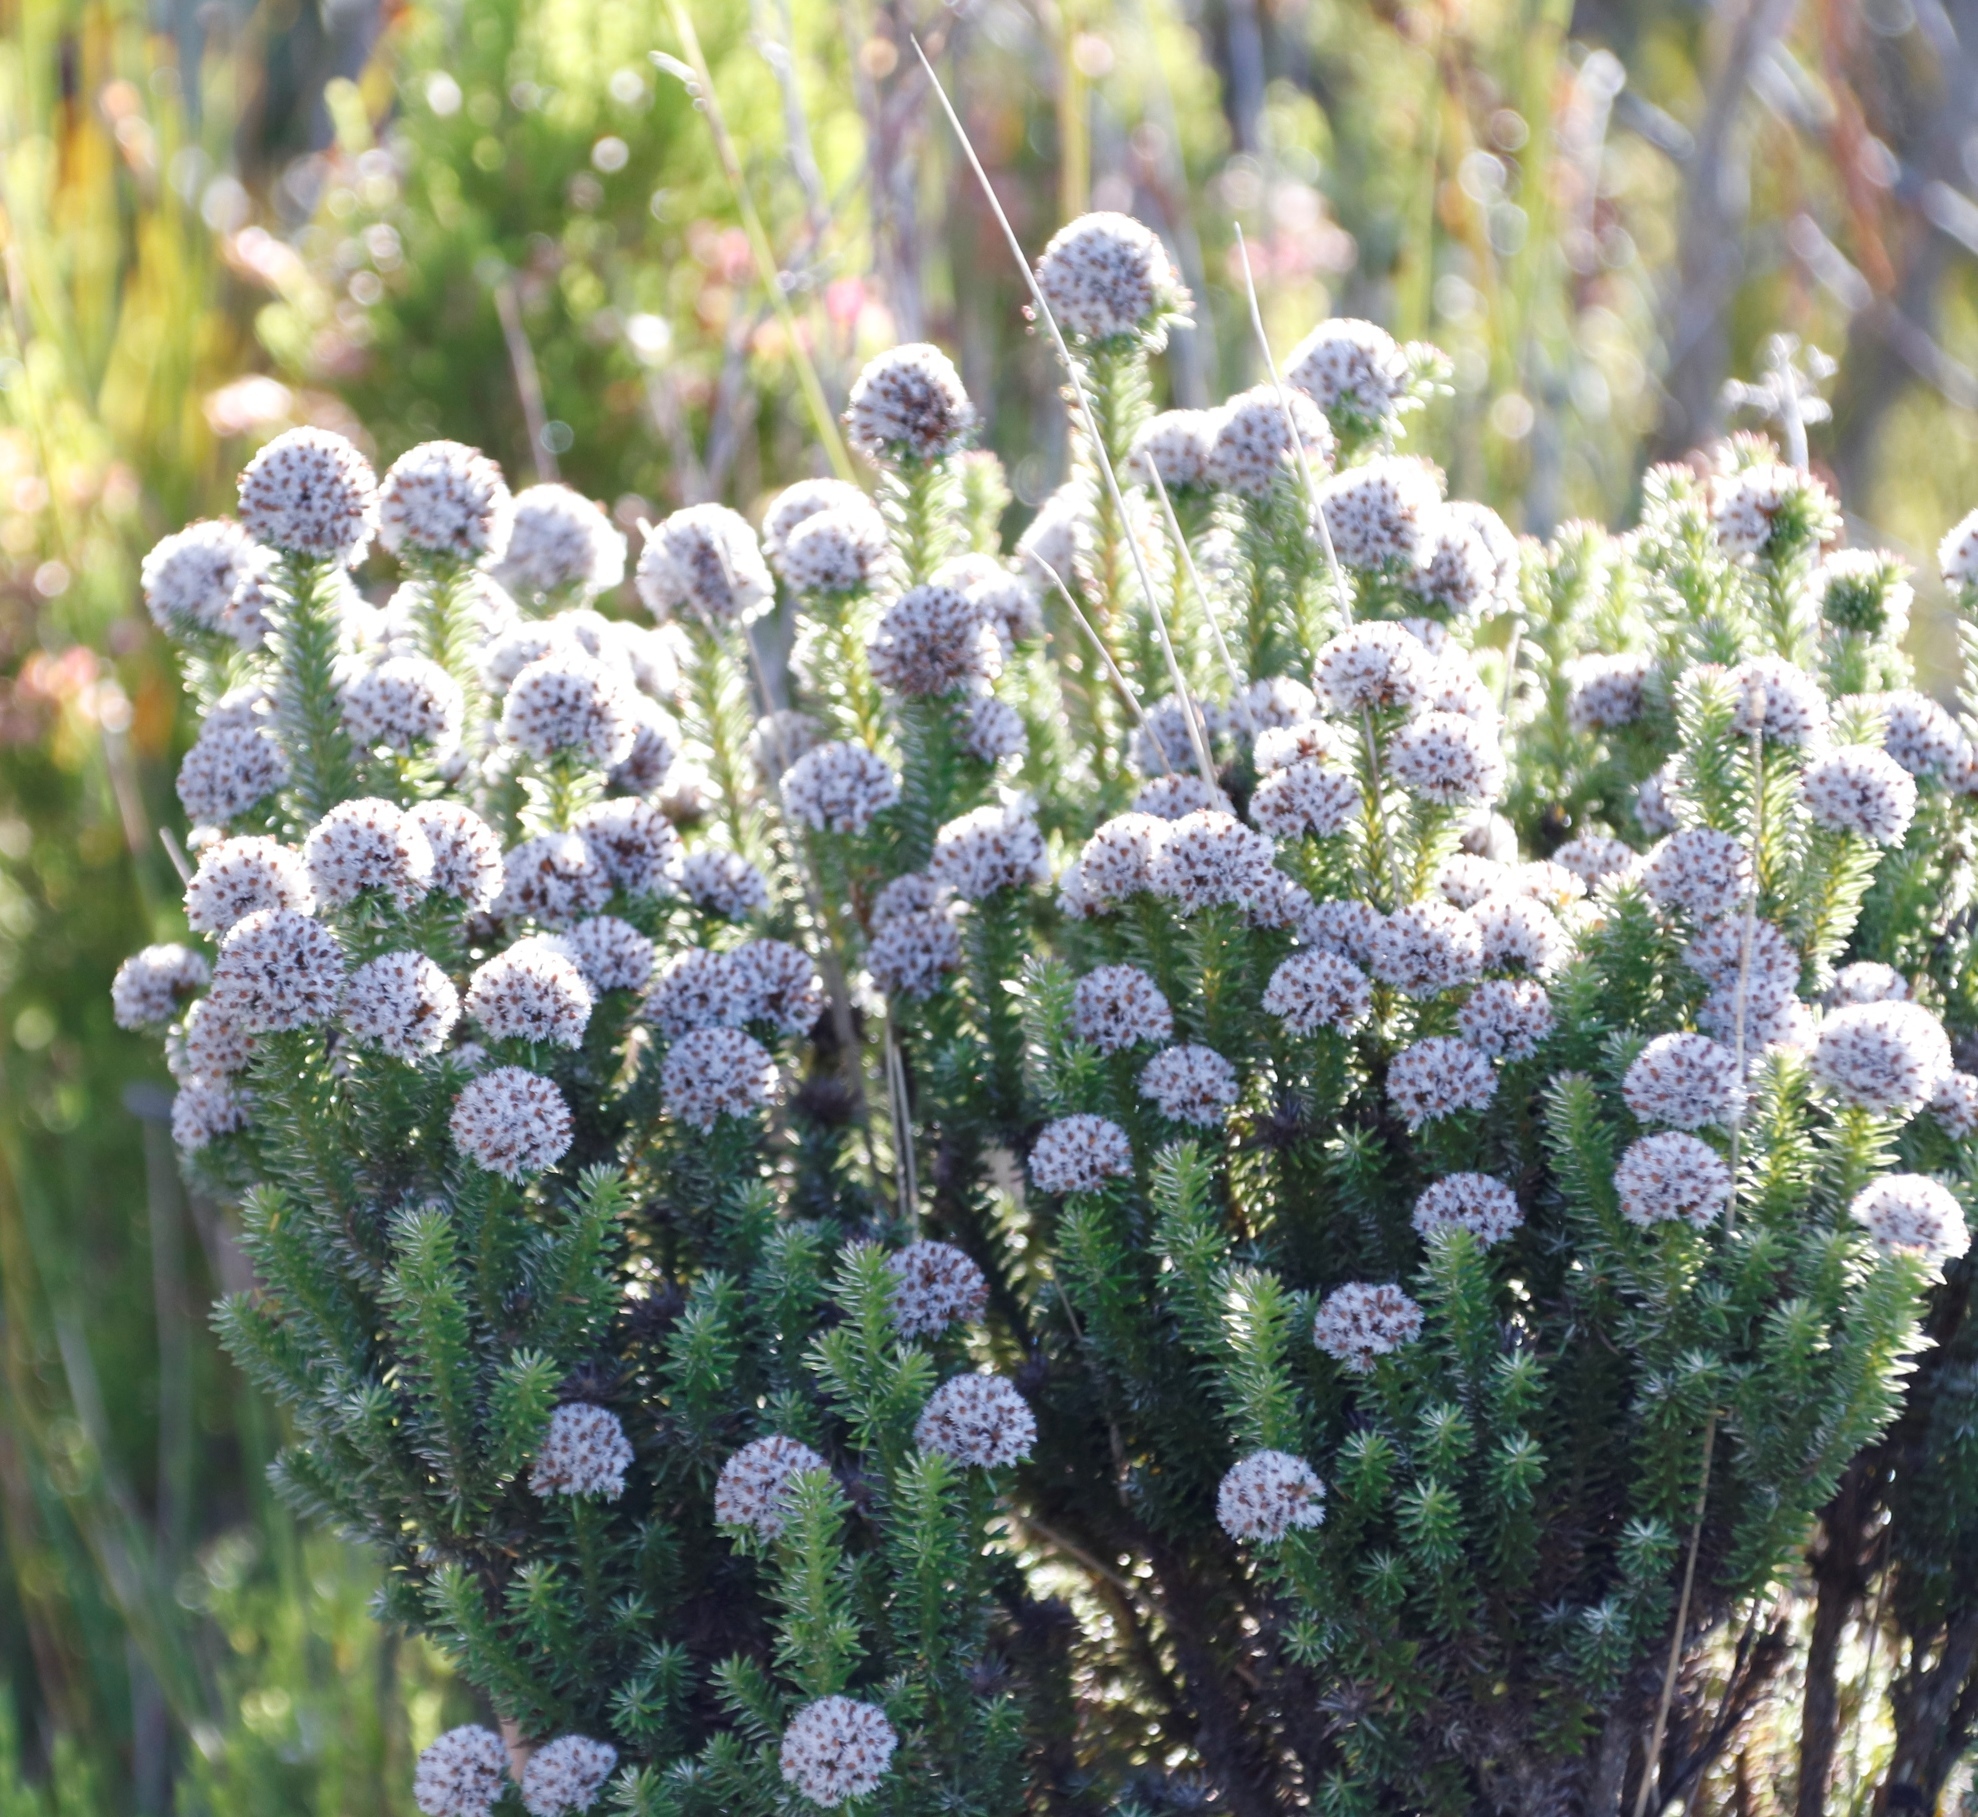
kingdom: Plantae
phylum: Tracheophyta
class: Magnoliopsida
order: Asterales
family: Asteraceae
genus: Stoebe
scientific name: Stoebe rosea
